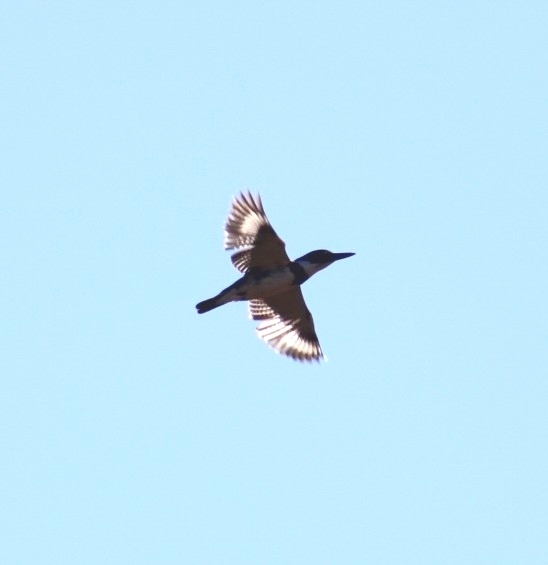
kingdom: Animalia
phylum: Chordata
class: Aves
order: Coraciiformes
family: Alcedinidae
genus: Megaceryle
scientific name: Megaceryle alcyon
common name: Belted kingfisher
